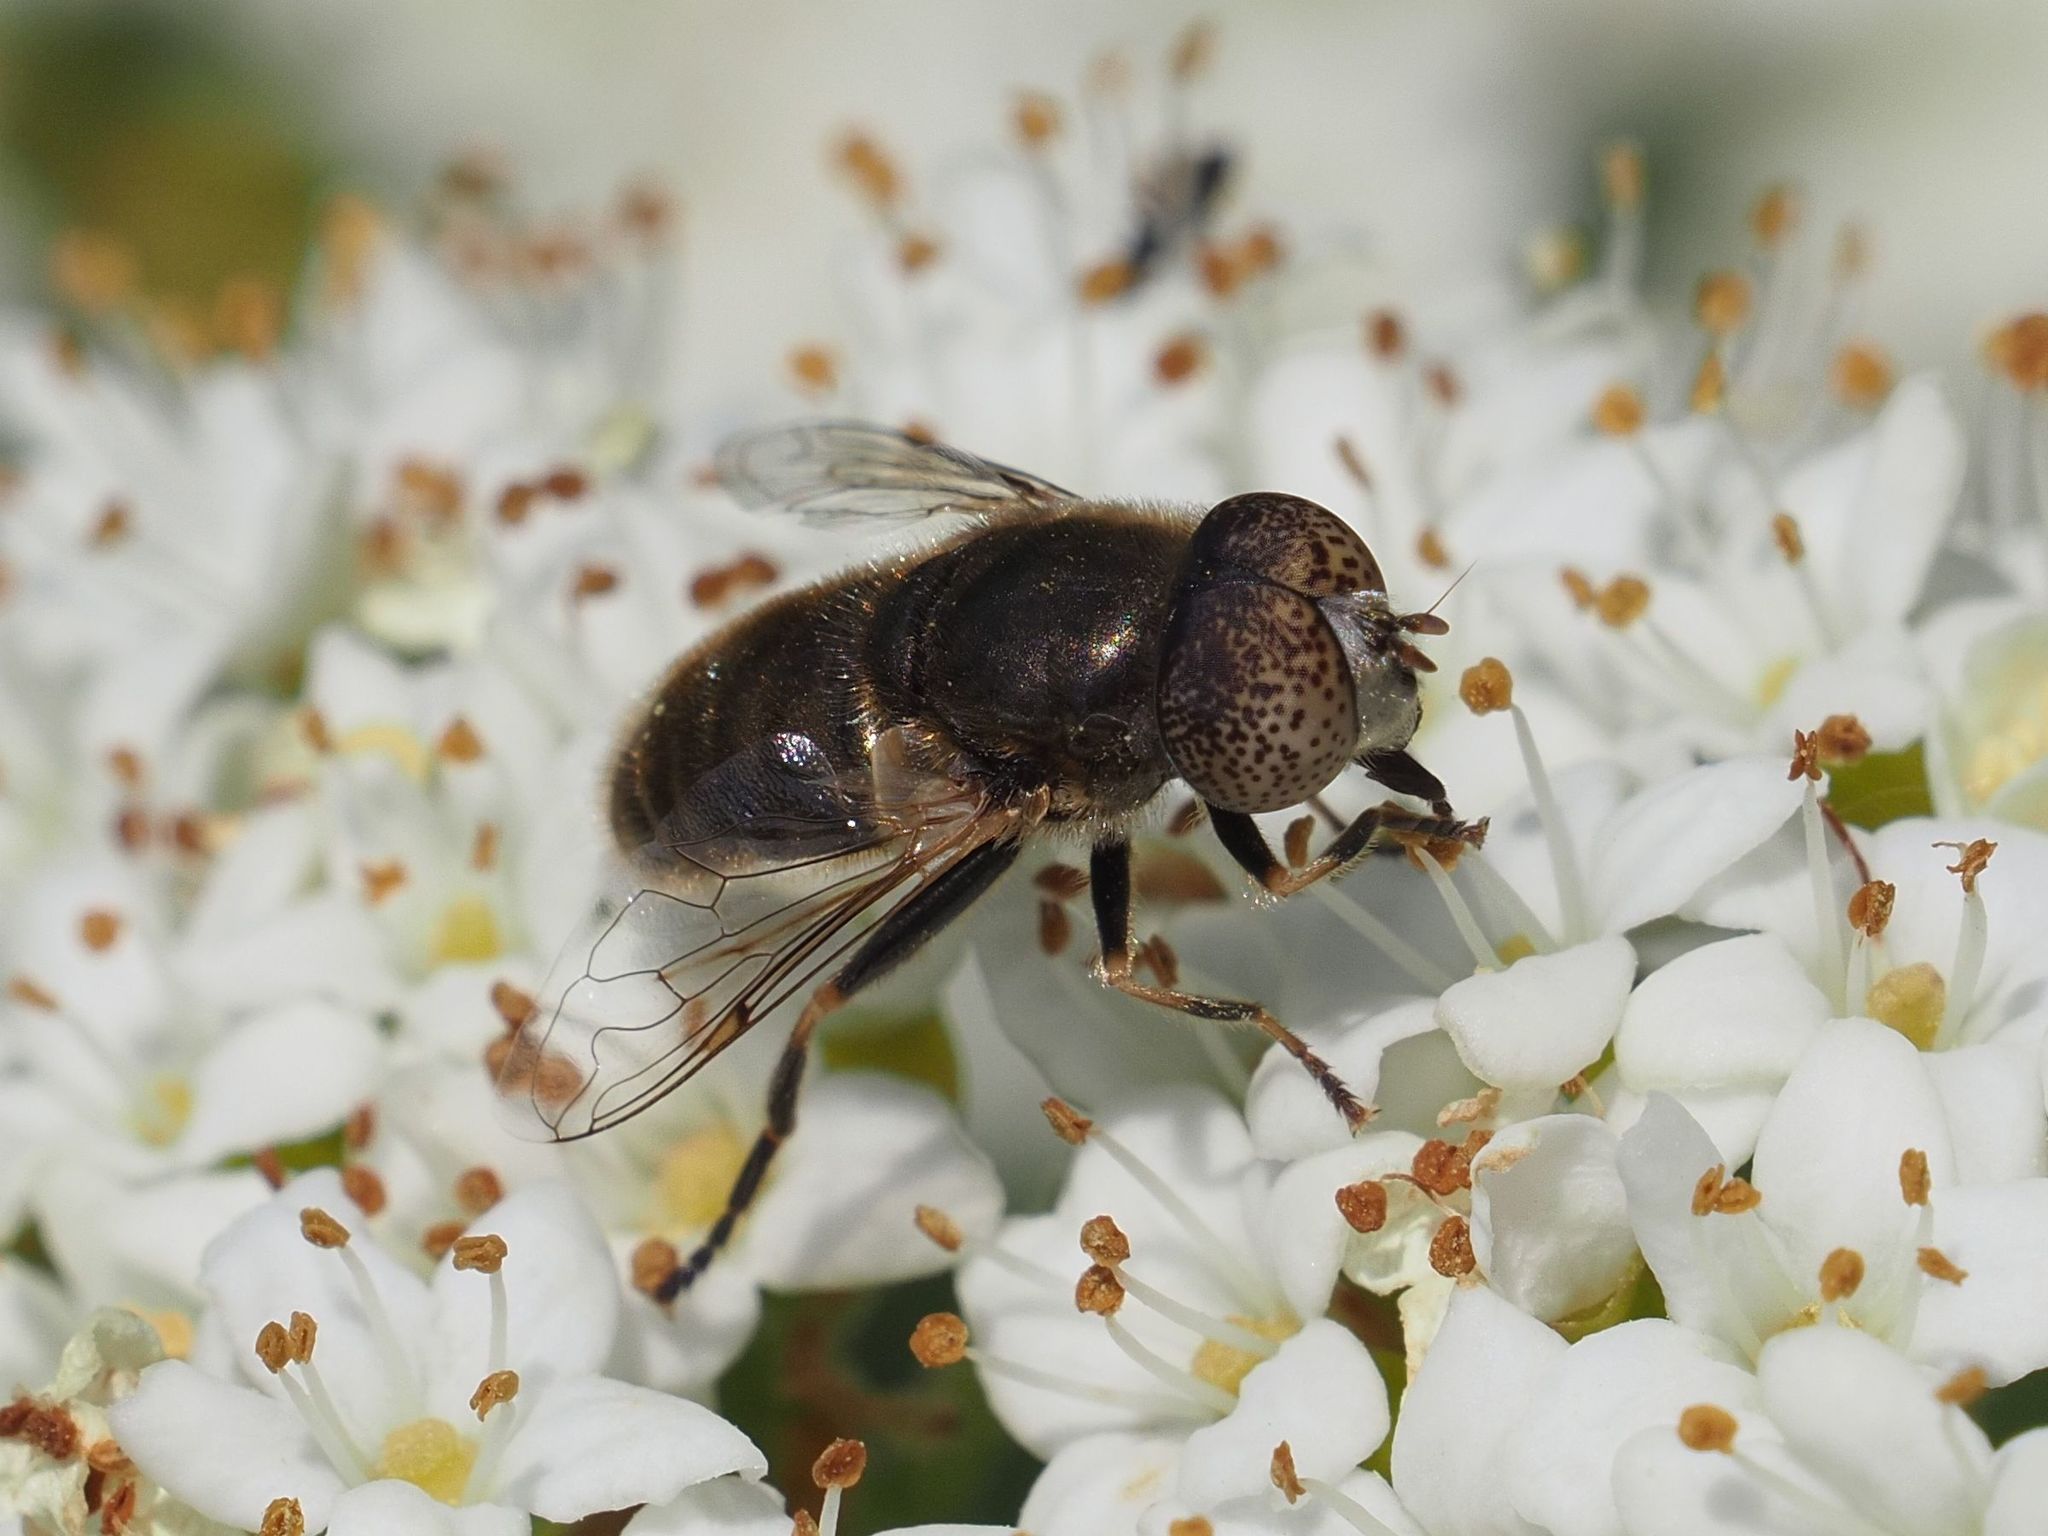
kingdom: Animalia
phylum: Arthropoda
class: Insecta
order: Diptera
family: Syrphidae
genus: Eristalinus
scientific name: Eristalinus aeneus
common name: Syrphid fly
